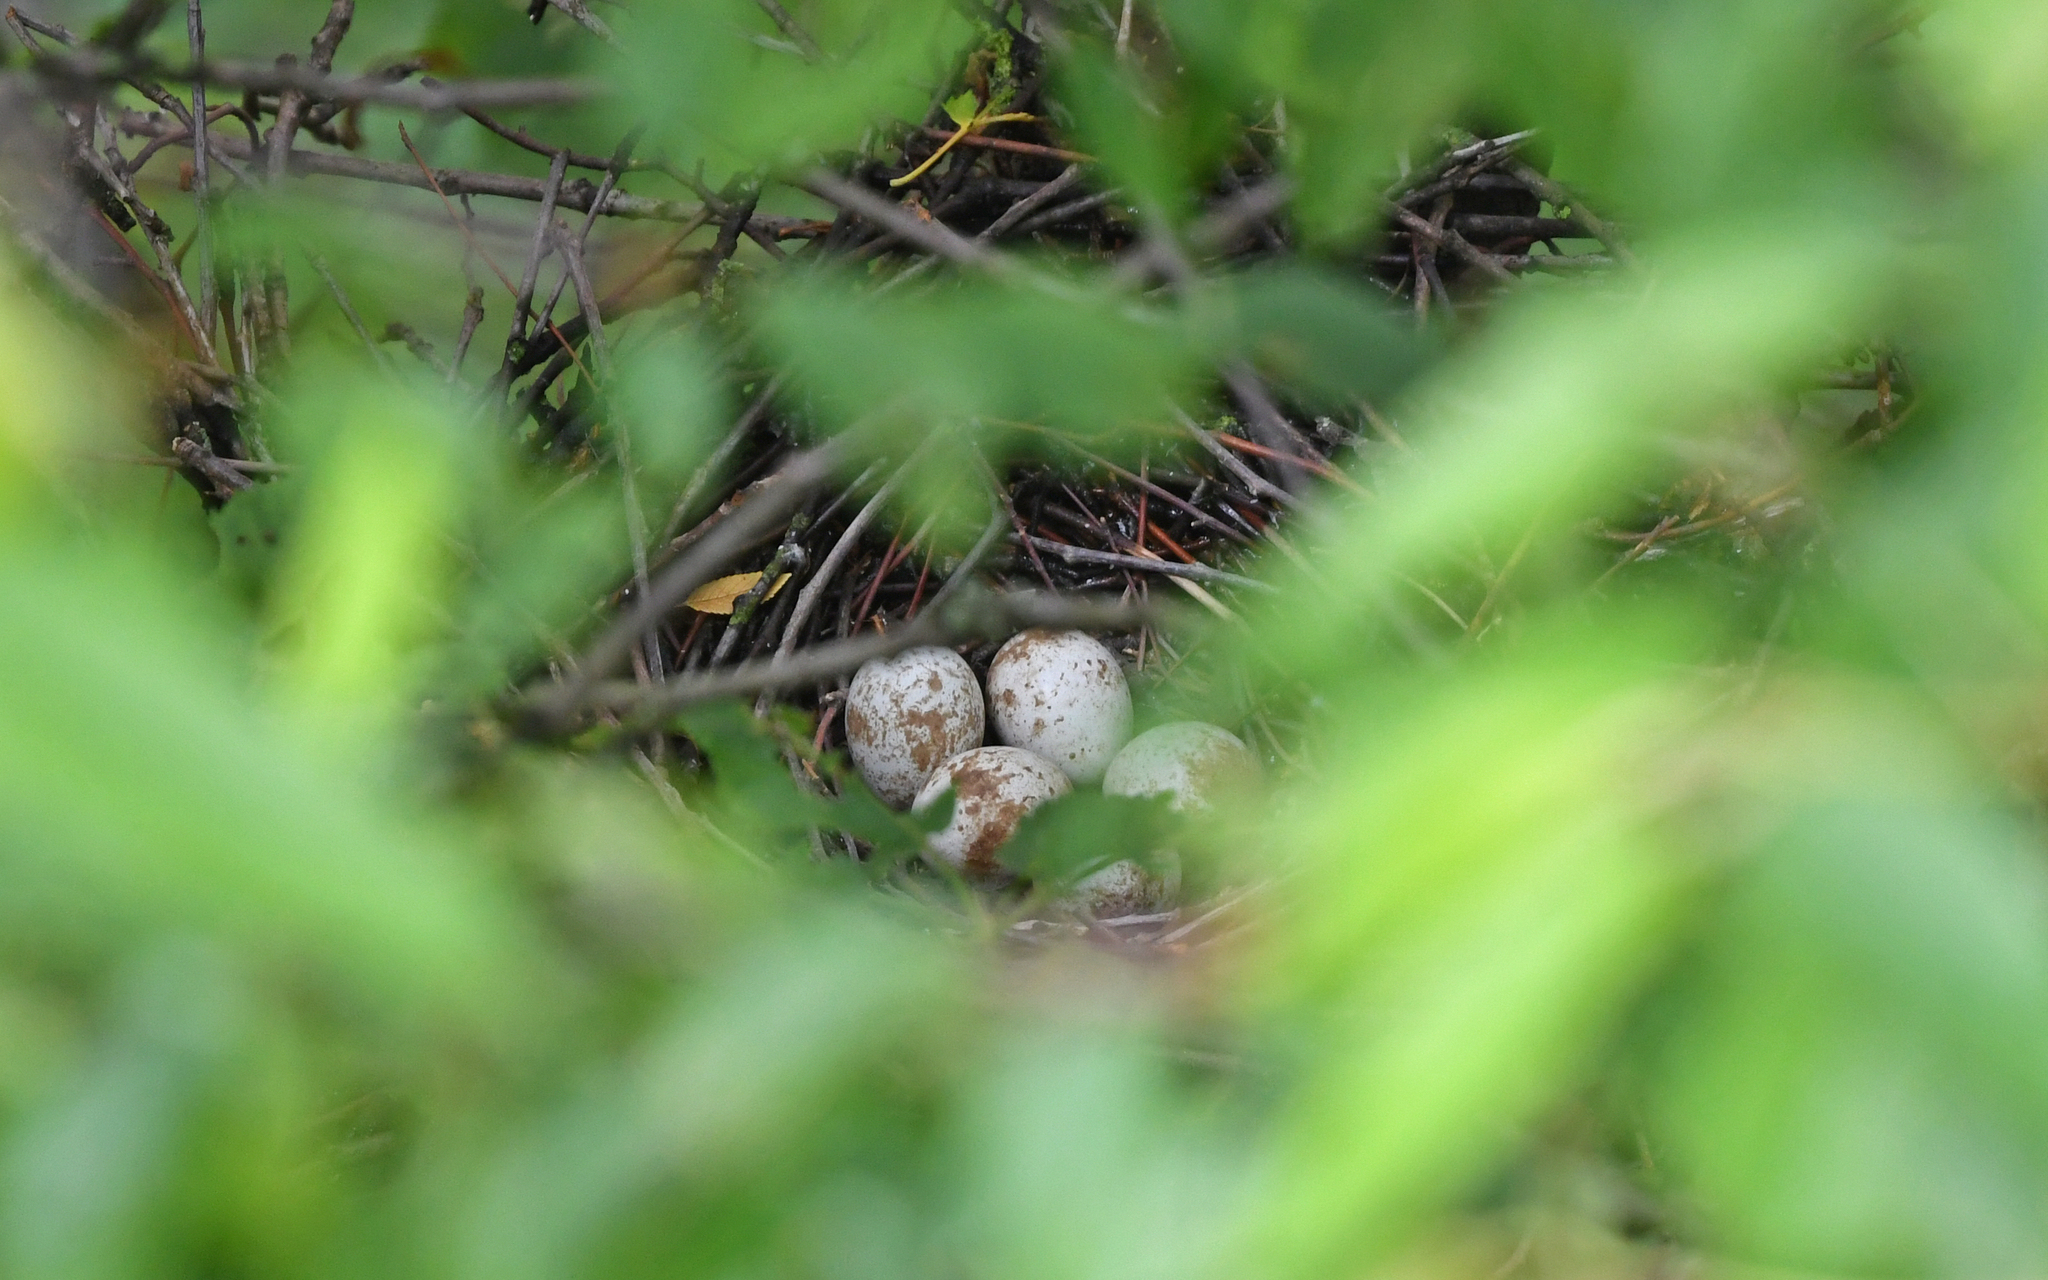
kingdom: Animalia
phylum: Chordata
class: Aves
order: Accipitriformes
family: Accipitridae
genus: Accipiter
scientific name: Accipiter nisus
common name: Eurasian sparrowhawk
